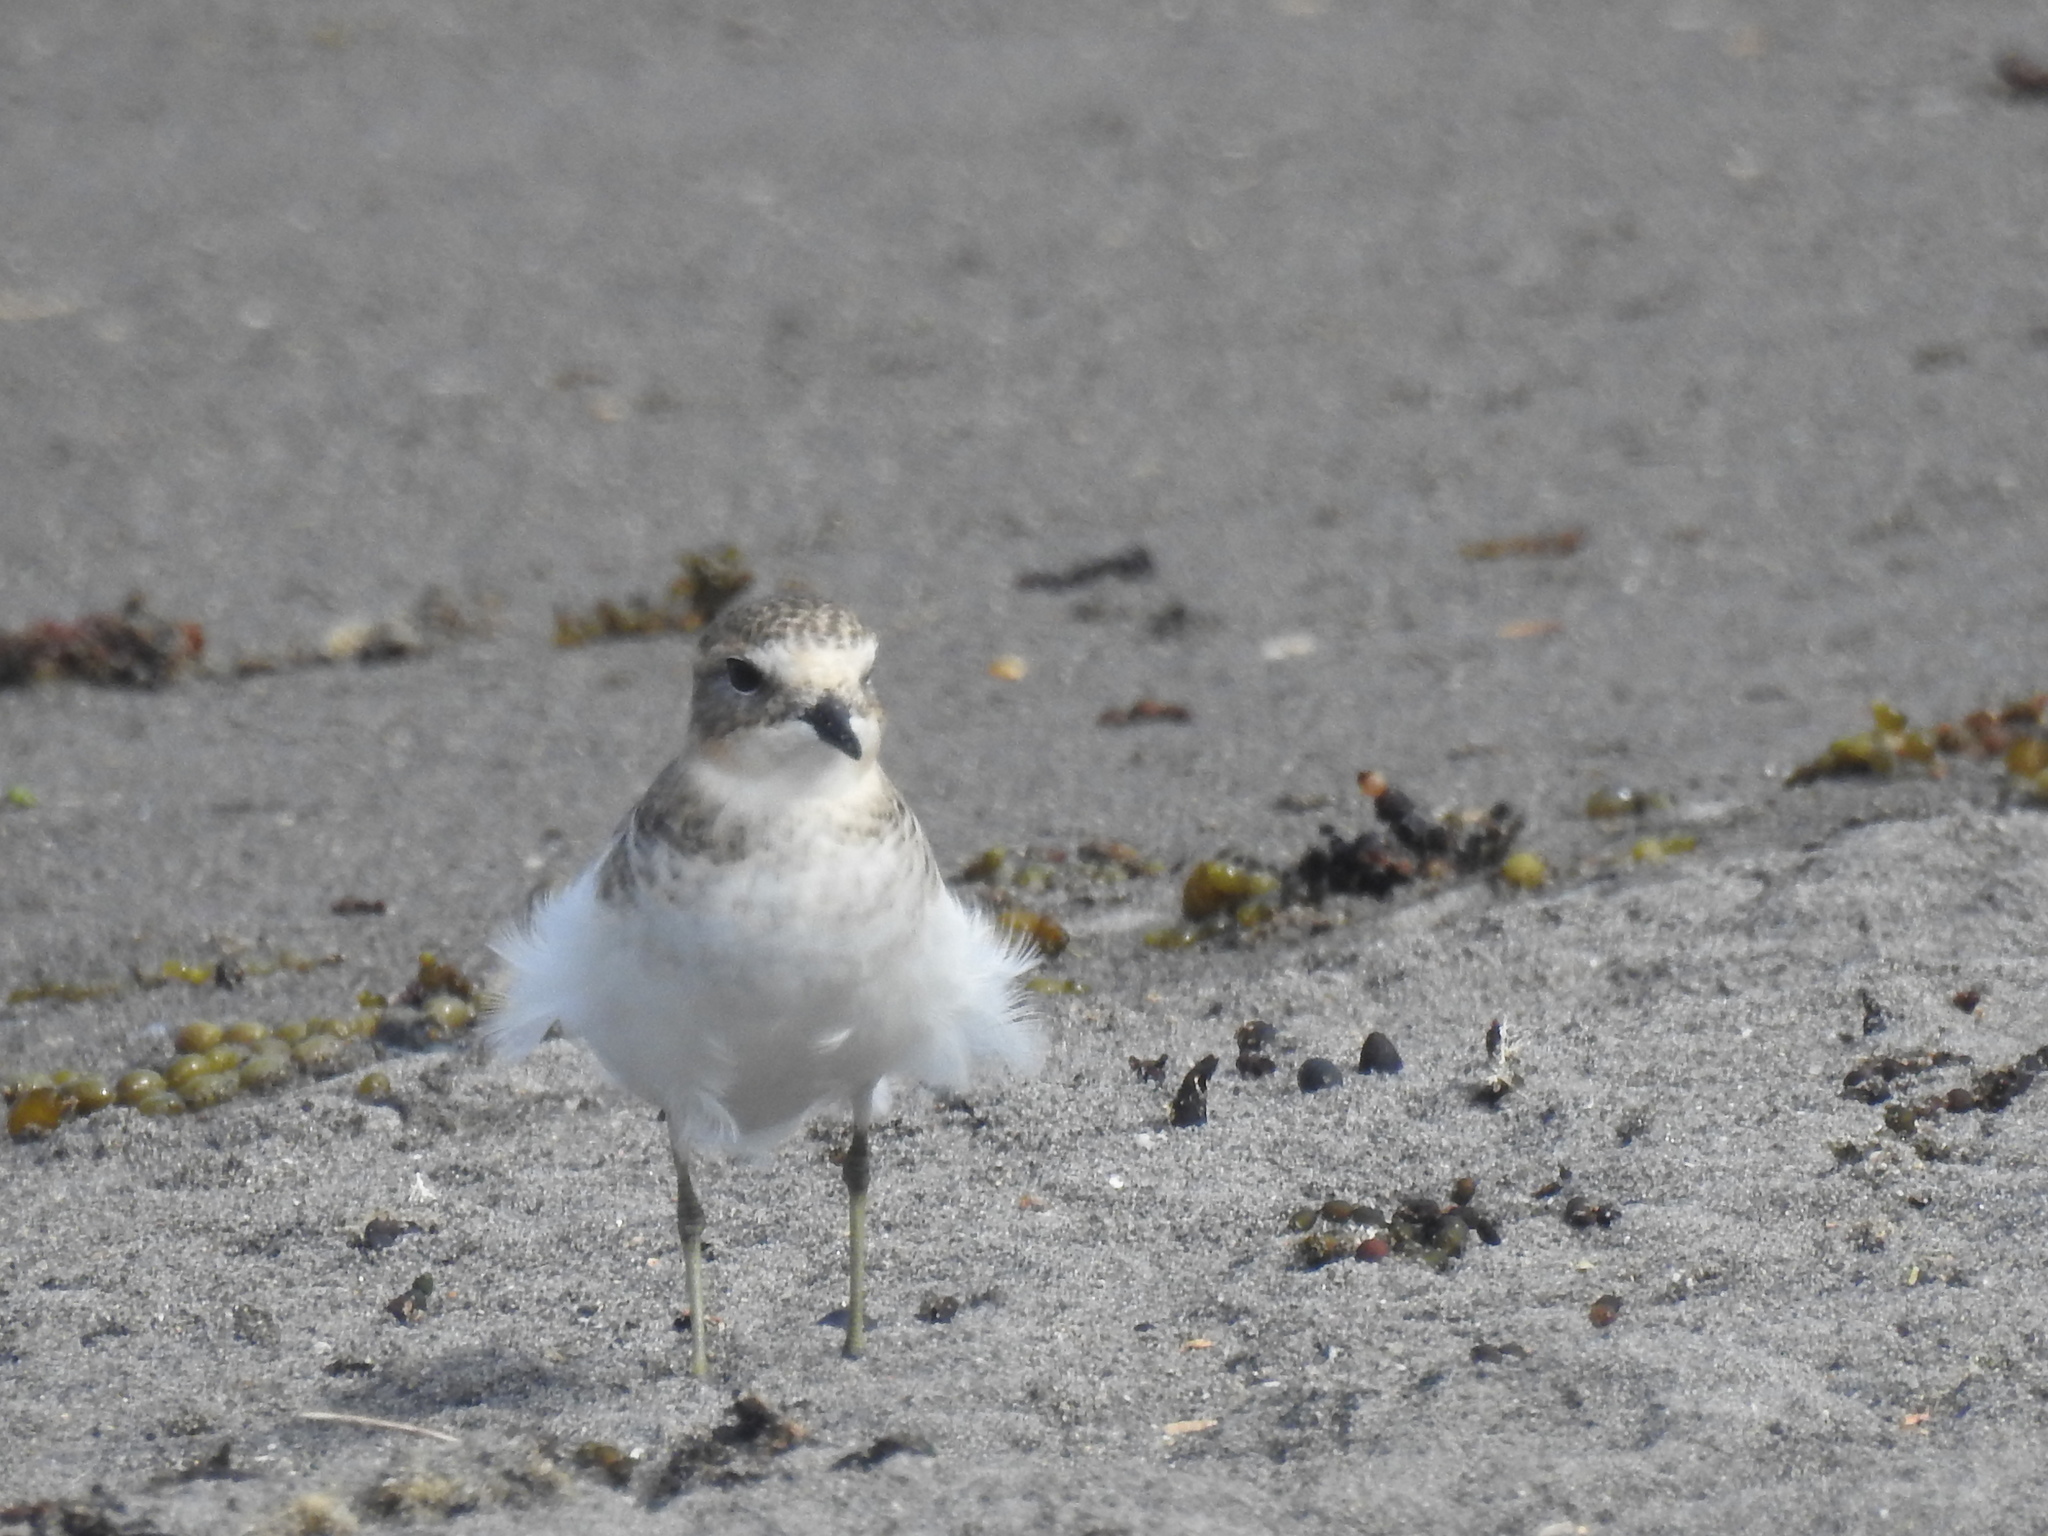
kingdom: Animalia
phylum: Chordata
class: Aves
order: Charadriiformes
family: Charadriidae
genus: Anarhynchus
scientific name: Anarhynchus
